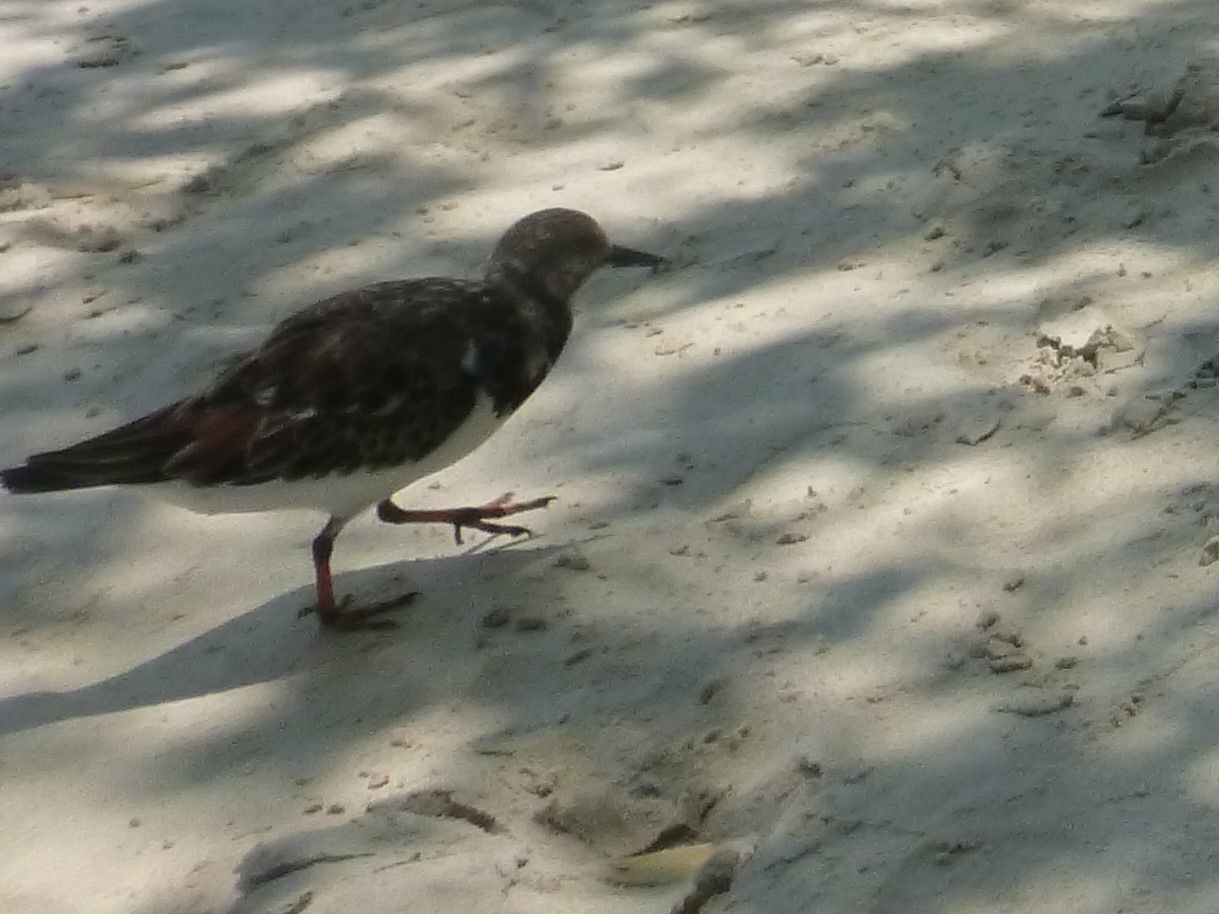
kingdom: Animalia
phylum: Chordata
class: Aves
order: Charadriiformes
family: Scolopacidae
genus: Arenaria
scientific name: Arenaria interpres
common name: Ruddy turnstone
